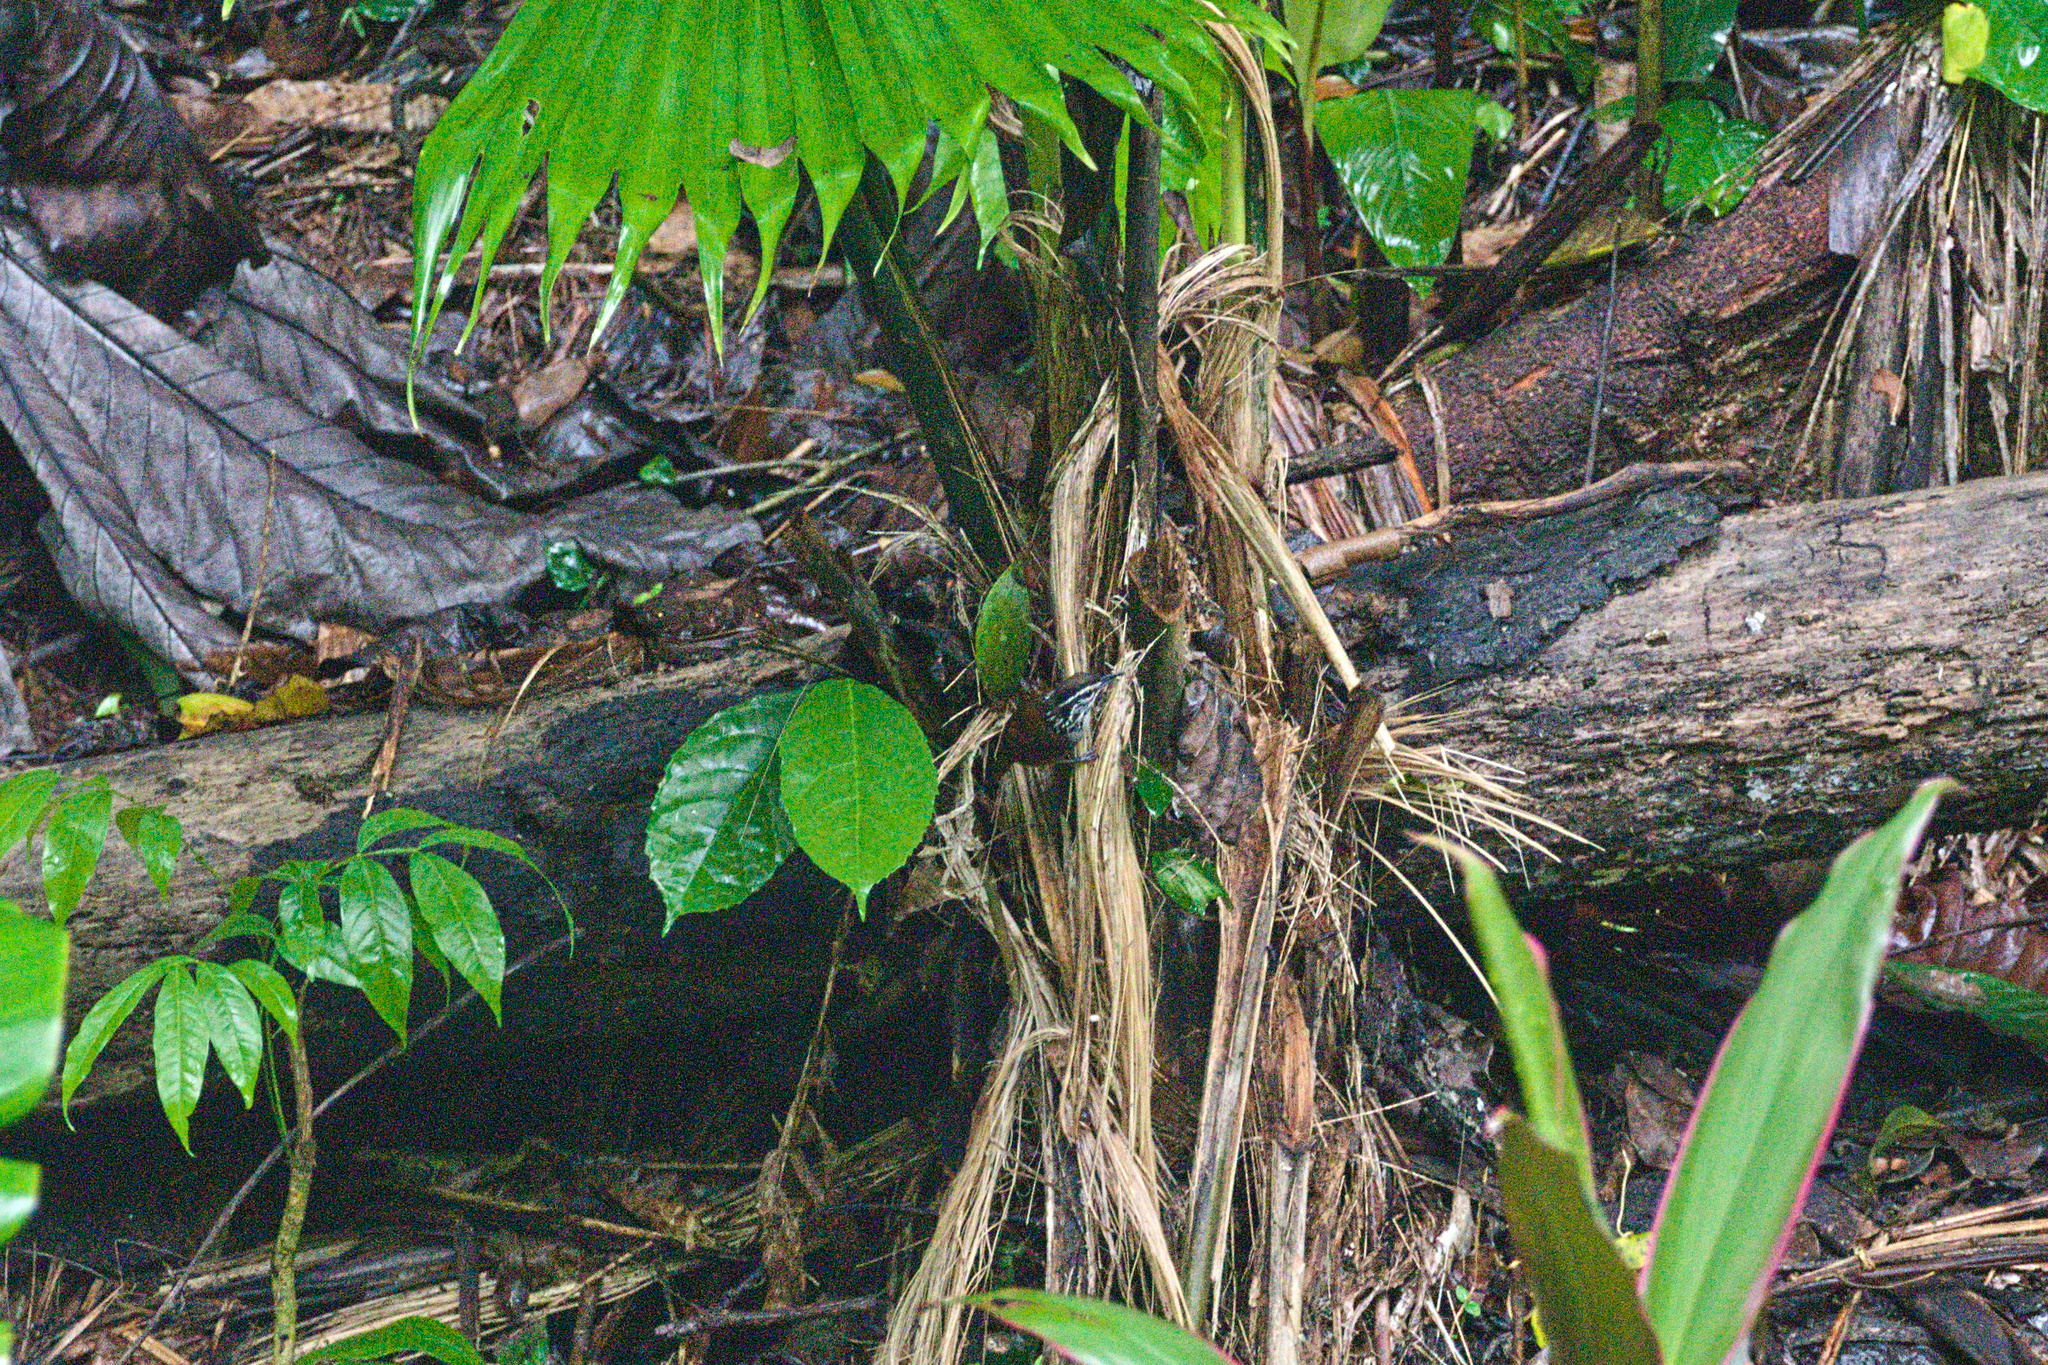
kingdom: Animalia
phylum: Chordata
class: Aves
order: Passeriformes
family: Troglodytidae
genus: Henicorhina
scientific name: Henicorhina leucosticta
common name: White-breasted wood-wren
